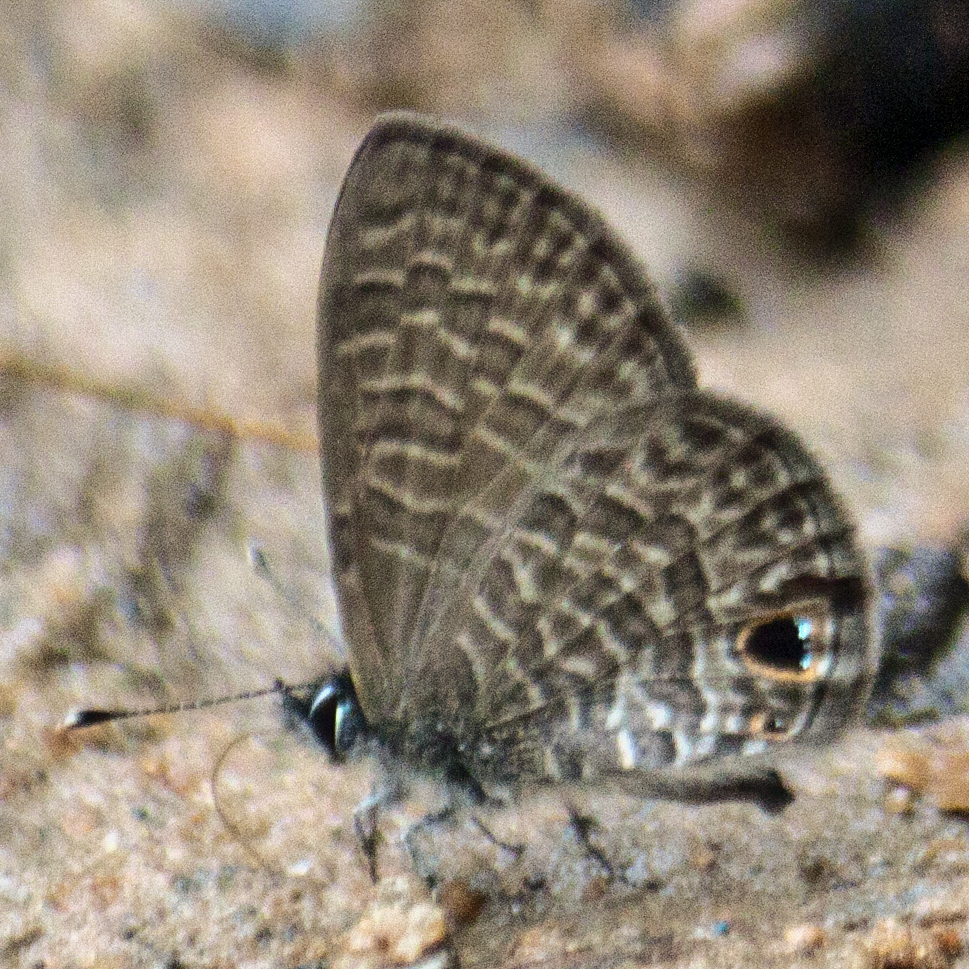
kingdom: Animalia
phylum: Arthropoda
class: Insecta
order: Lepidoptera
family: Lycaenidae
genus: Prosotas
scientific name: Prosotas dubiosa
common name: Tailless lineblue
